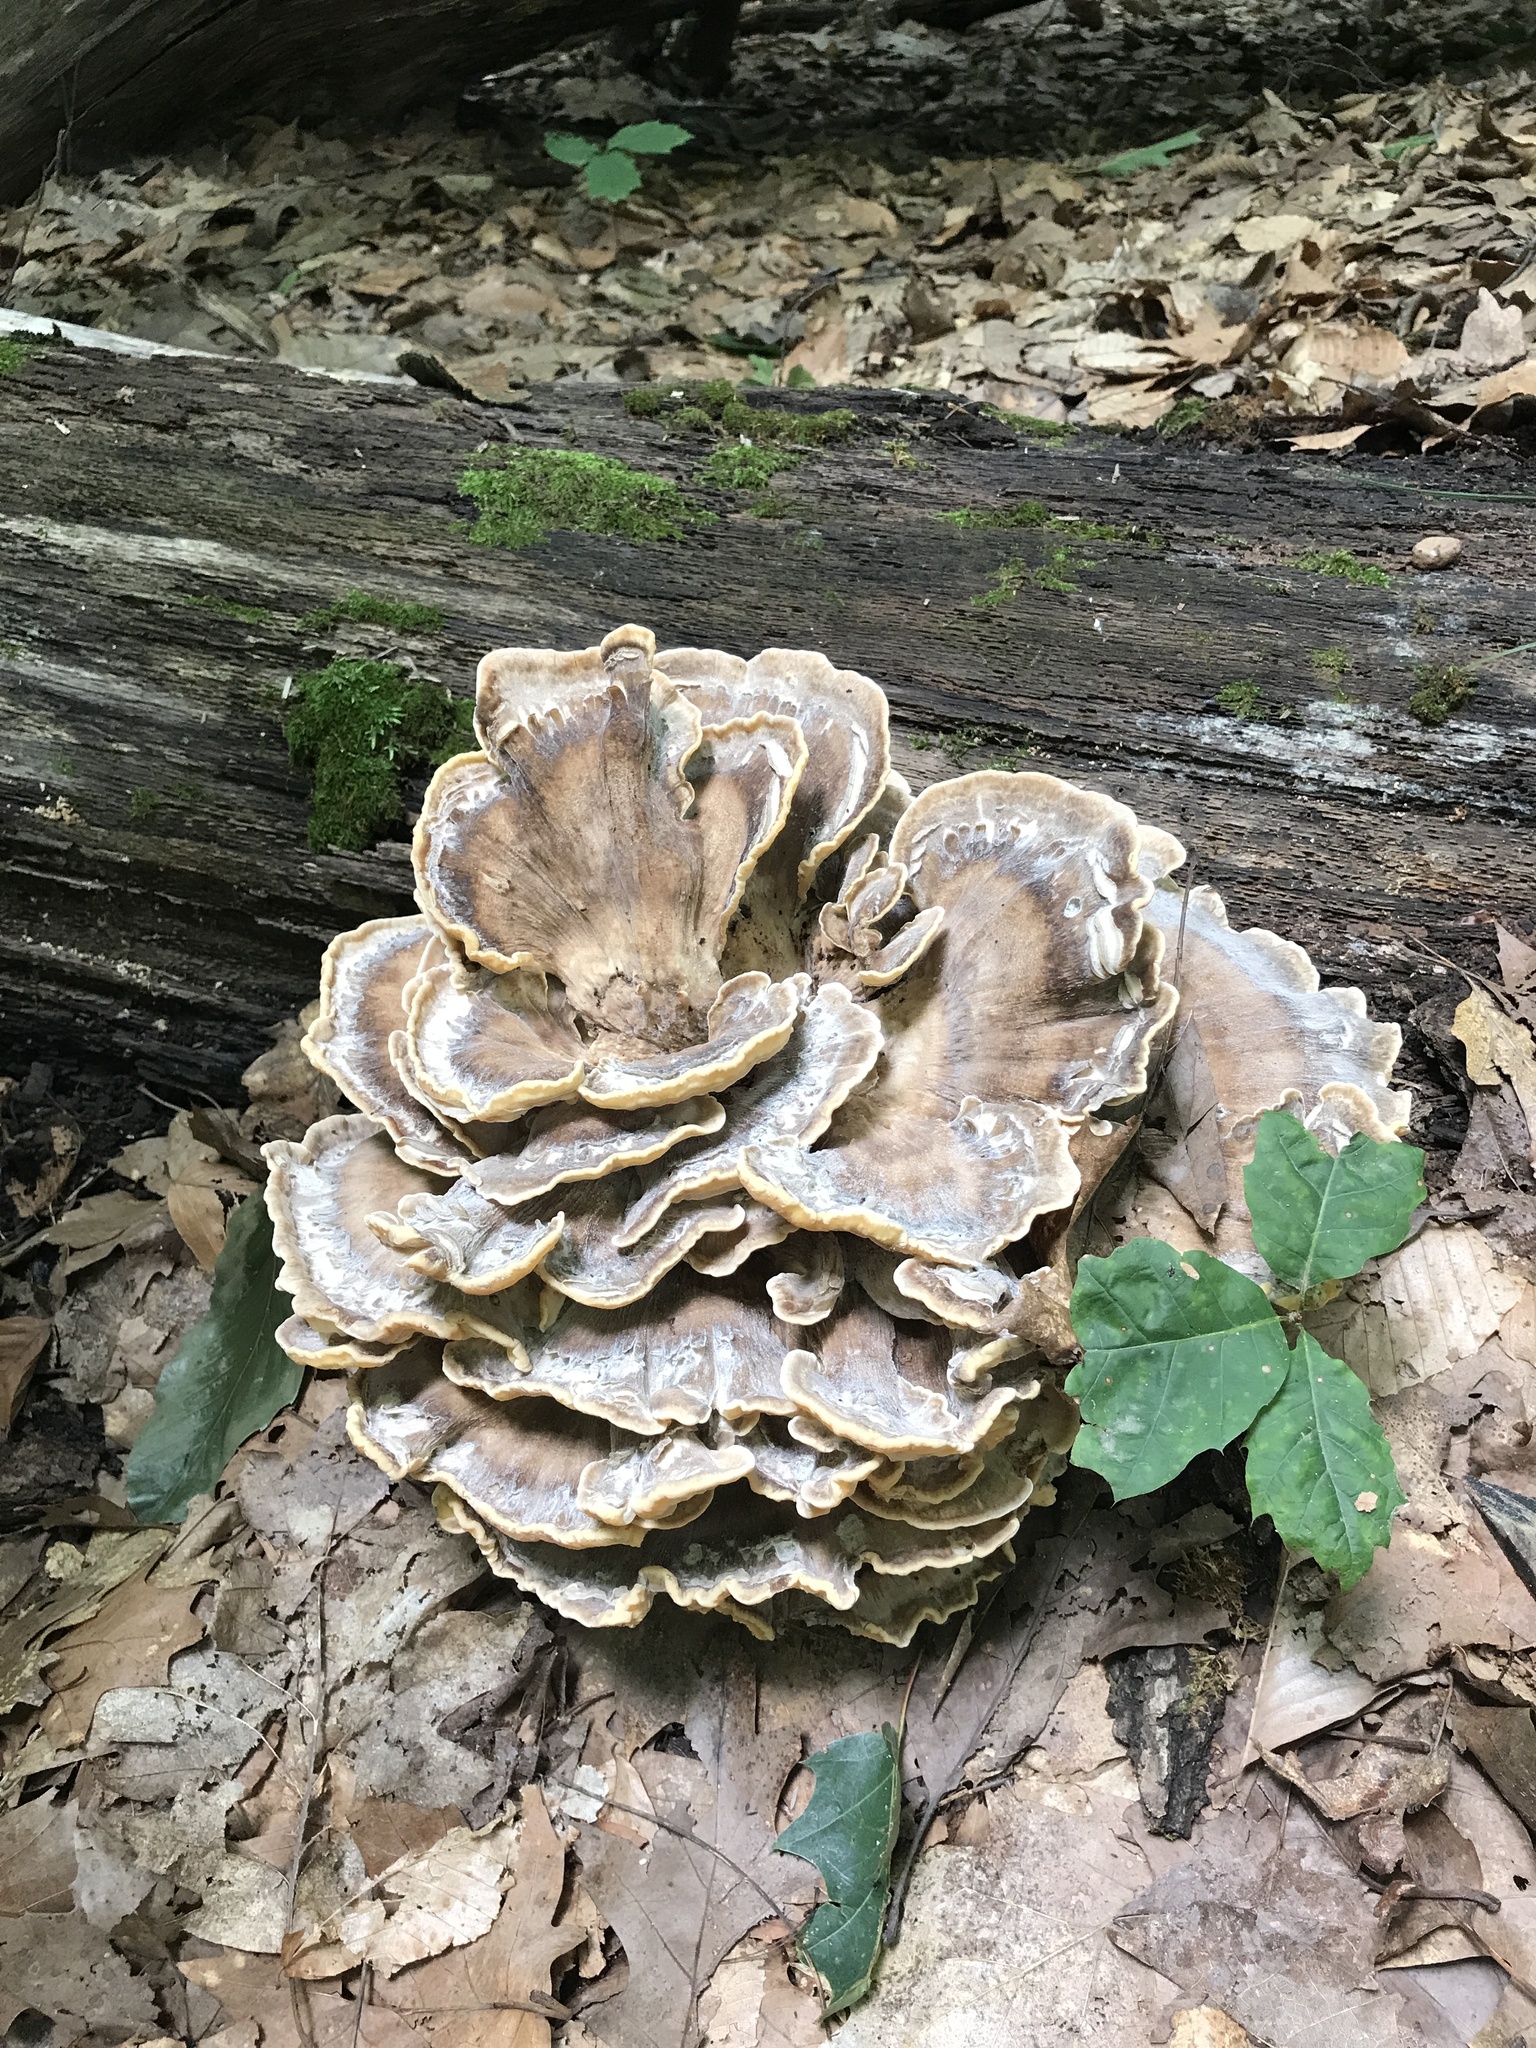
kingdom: Fungi
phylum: Basidiomycota
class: Agaricomycetes
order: Polyporales
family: Meripilaceae
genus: Meripilus
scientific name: Meripilus sumstinei
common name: Black-staining polypore
